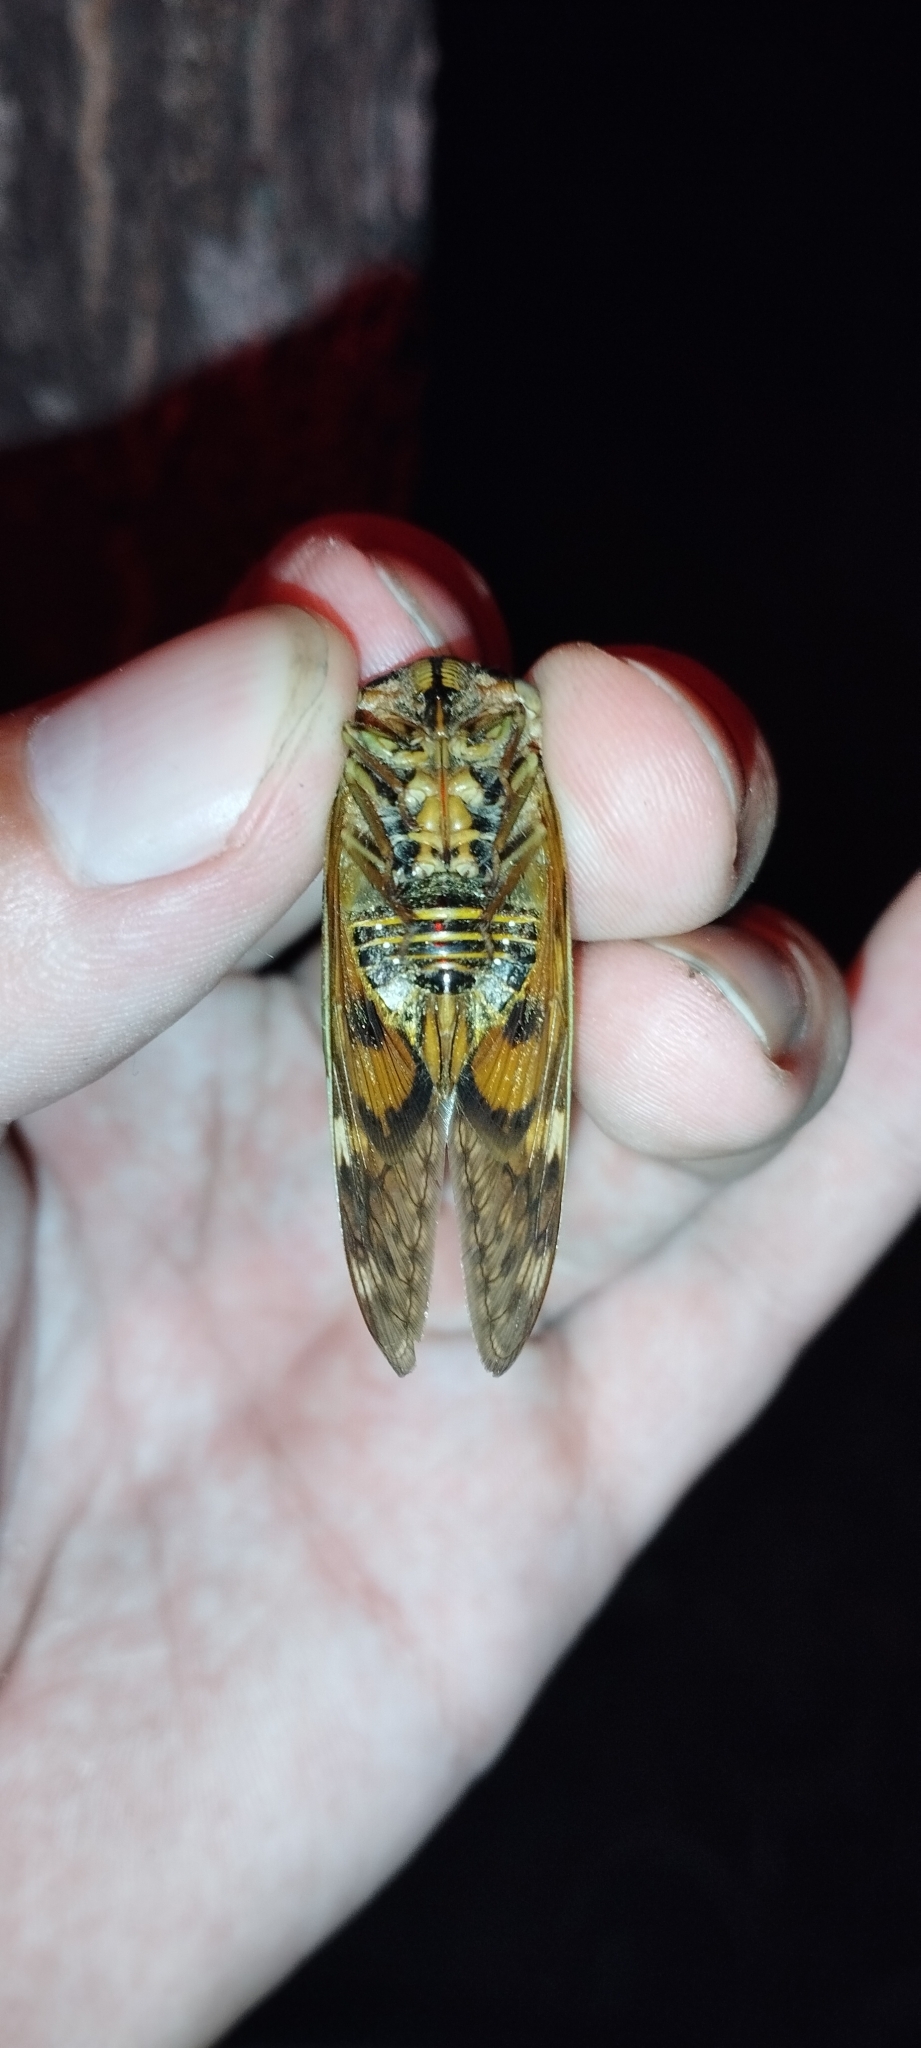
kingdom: Animalia
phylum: Arthropoda
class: Insecta
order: Hemiptera
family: Cicadidae
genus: Platypleura
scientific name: Platypleura mira
